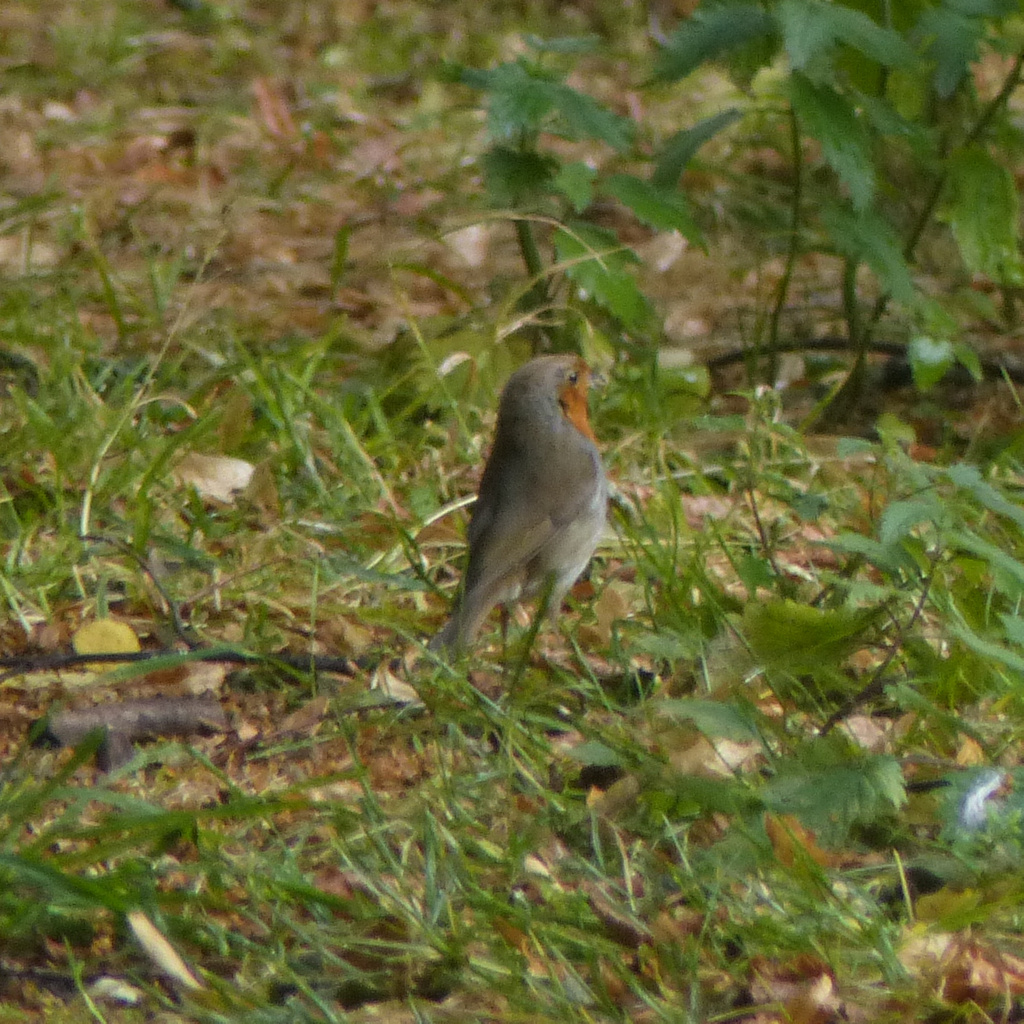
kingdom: Animalia
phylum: Chordata
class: Aves
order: Passeriformes
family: Muscicapidae
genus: Erithacus
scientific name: Erithacus rubecula
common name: European robin
